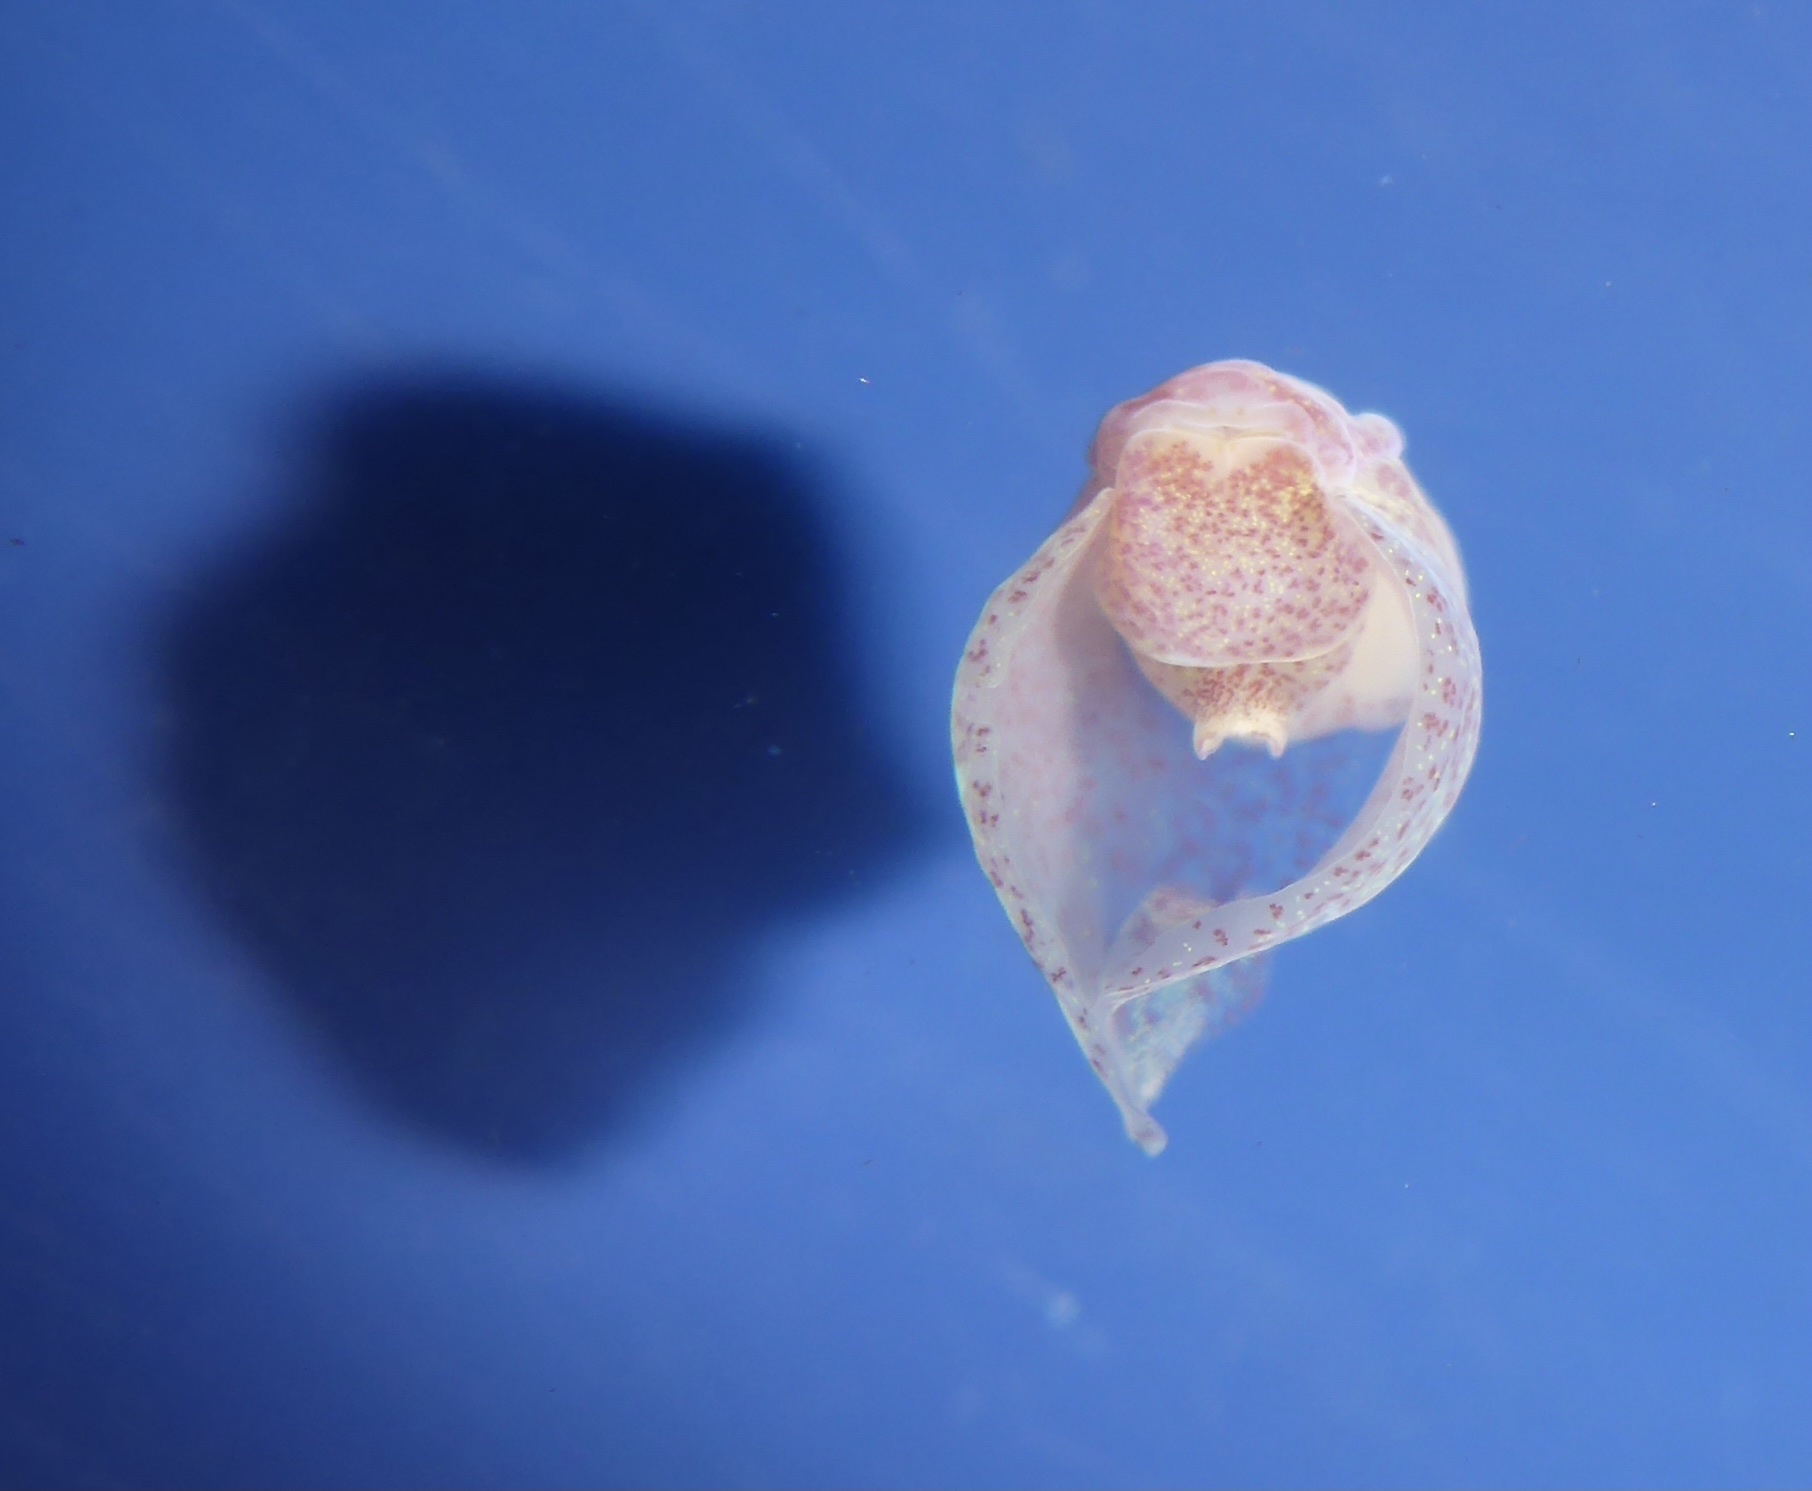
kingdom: Animalia
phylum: Mollusca
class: Gastropoda
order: Cephalaspidea
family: Gastropteridae
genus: Gastropteron
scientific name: Gastropteron pacificum
